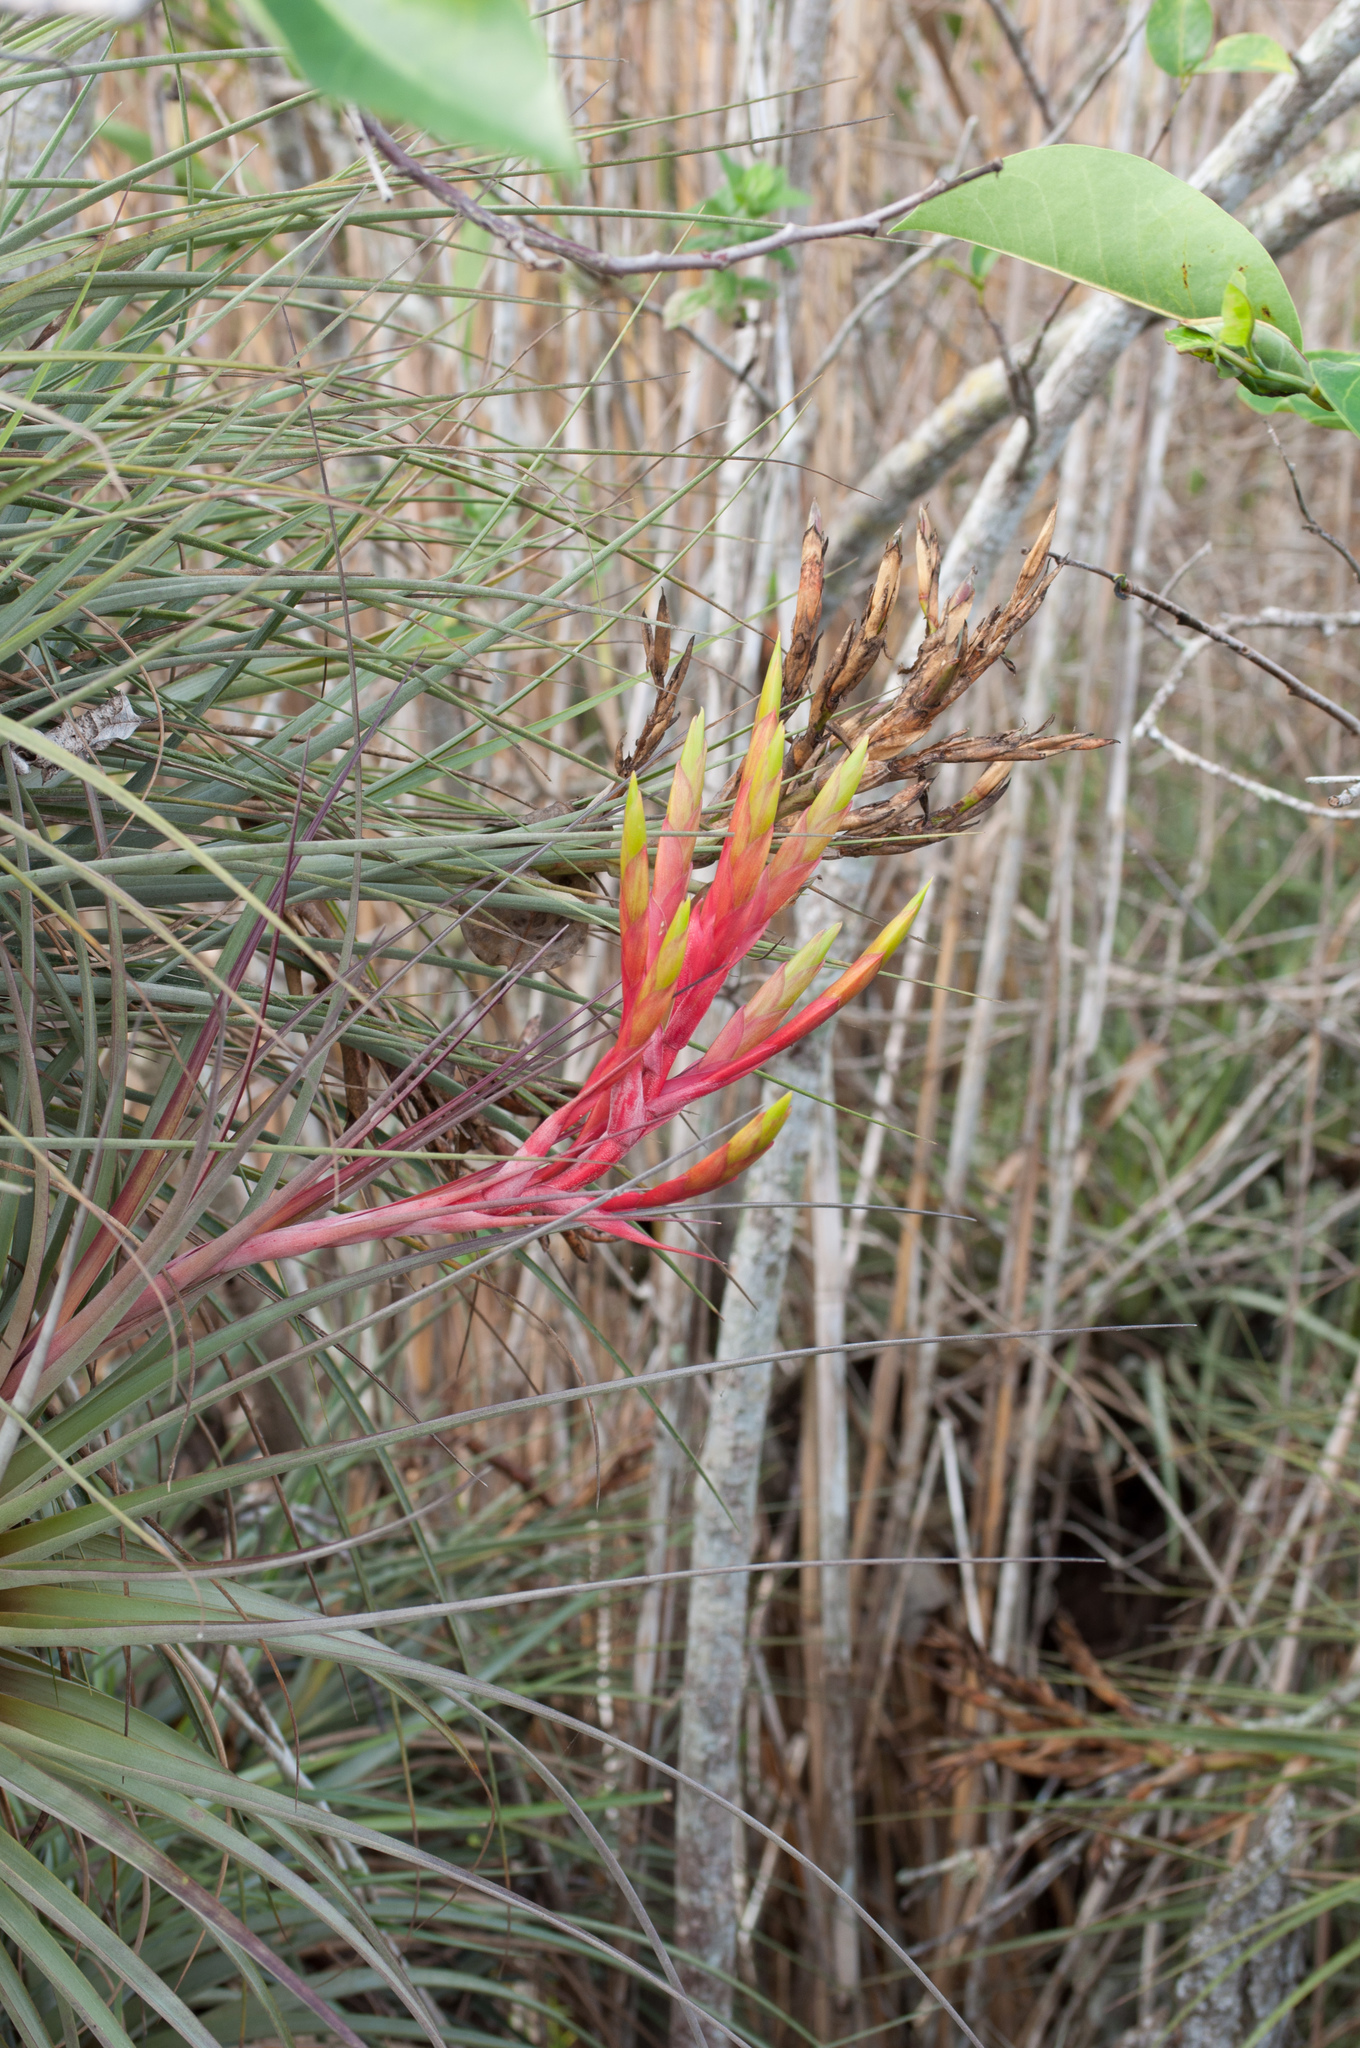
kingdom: Plantae
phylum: Tracheophyta
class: Liliopsida
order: Poales
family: Bromeliaceae
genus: Tillandsia
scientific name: Tillandsia fasciculata
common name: Giant airplant
